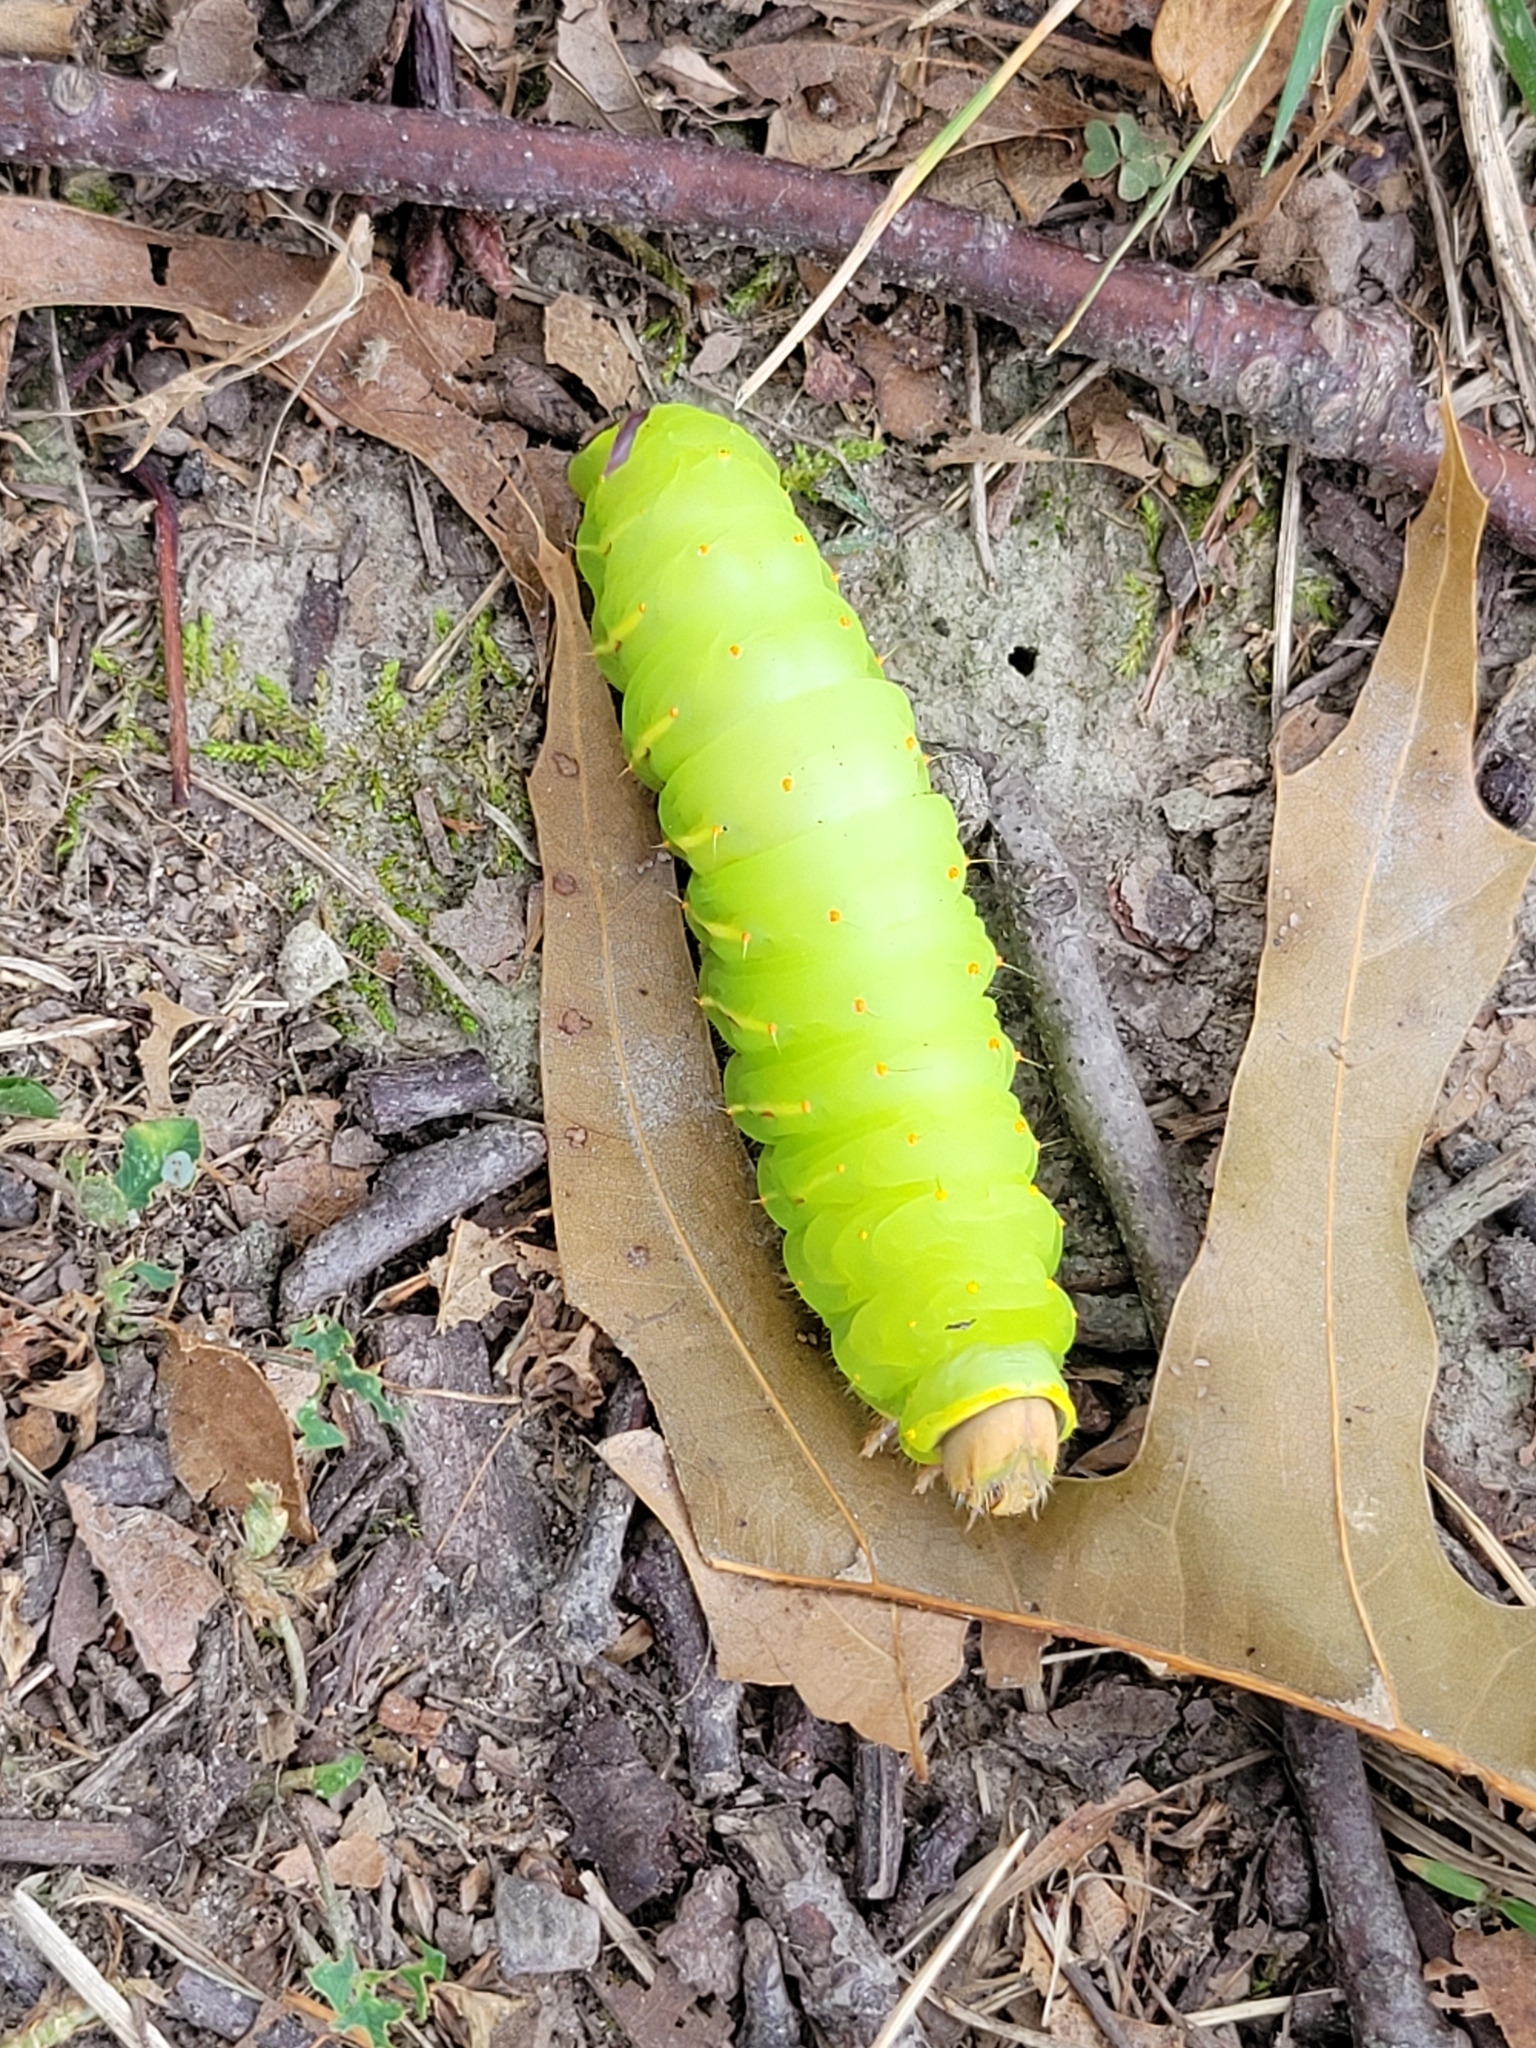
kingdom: Animalia
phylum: Arthropoda
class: Insecta
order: Lepidoptera
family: Saturniidae
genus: Antheraea
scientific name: Antheraea polyphemus
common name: Polyphemus moth
